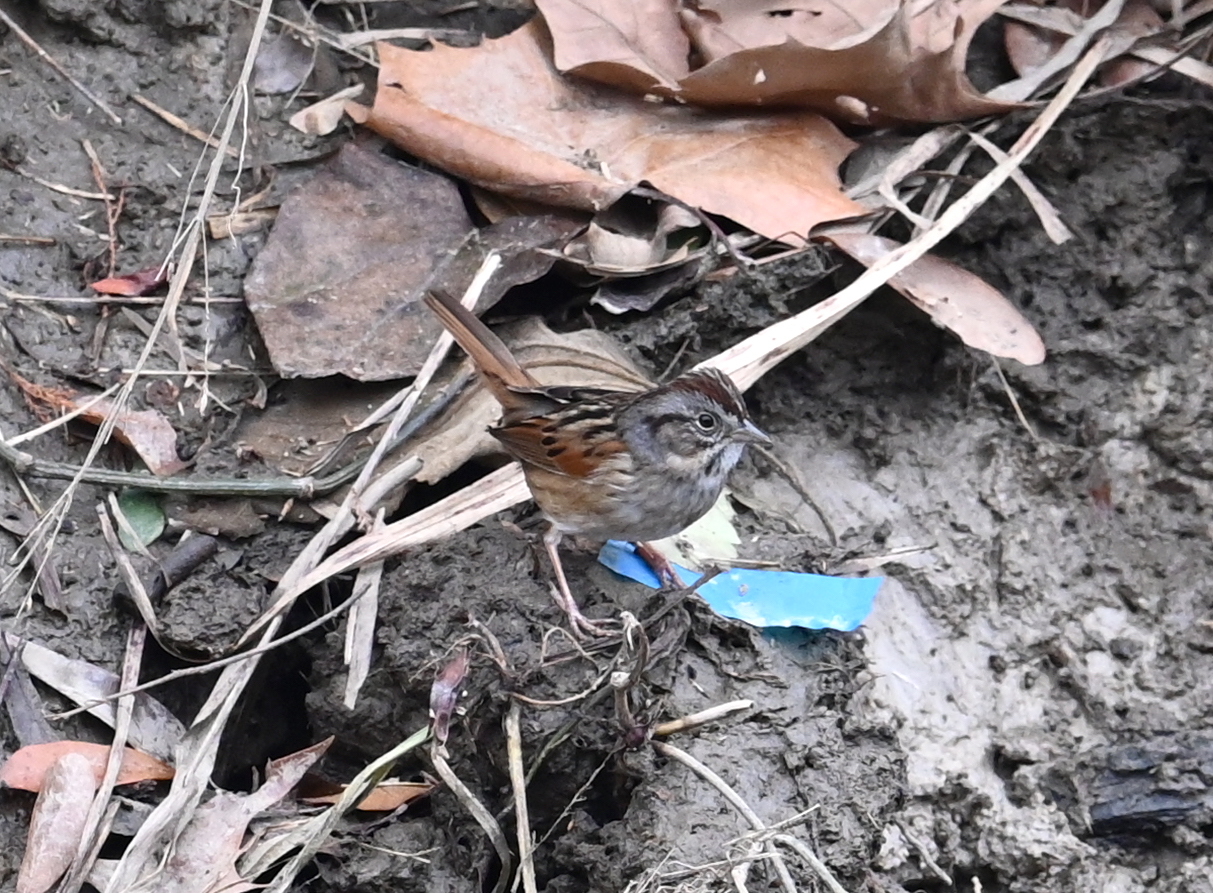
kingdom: Animalia
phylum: Chordata
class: Aves
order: Passeriformes
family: Passerellidae
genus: Melospiza
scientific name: Melospiza georgiana
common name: Swamp sparrow
